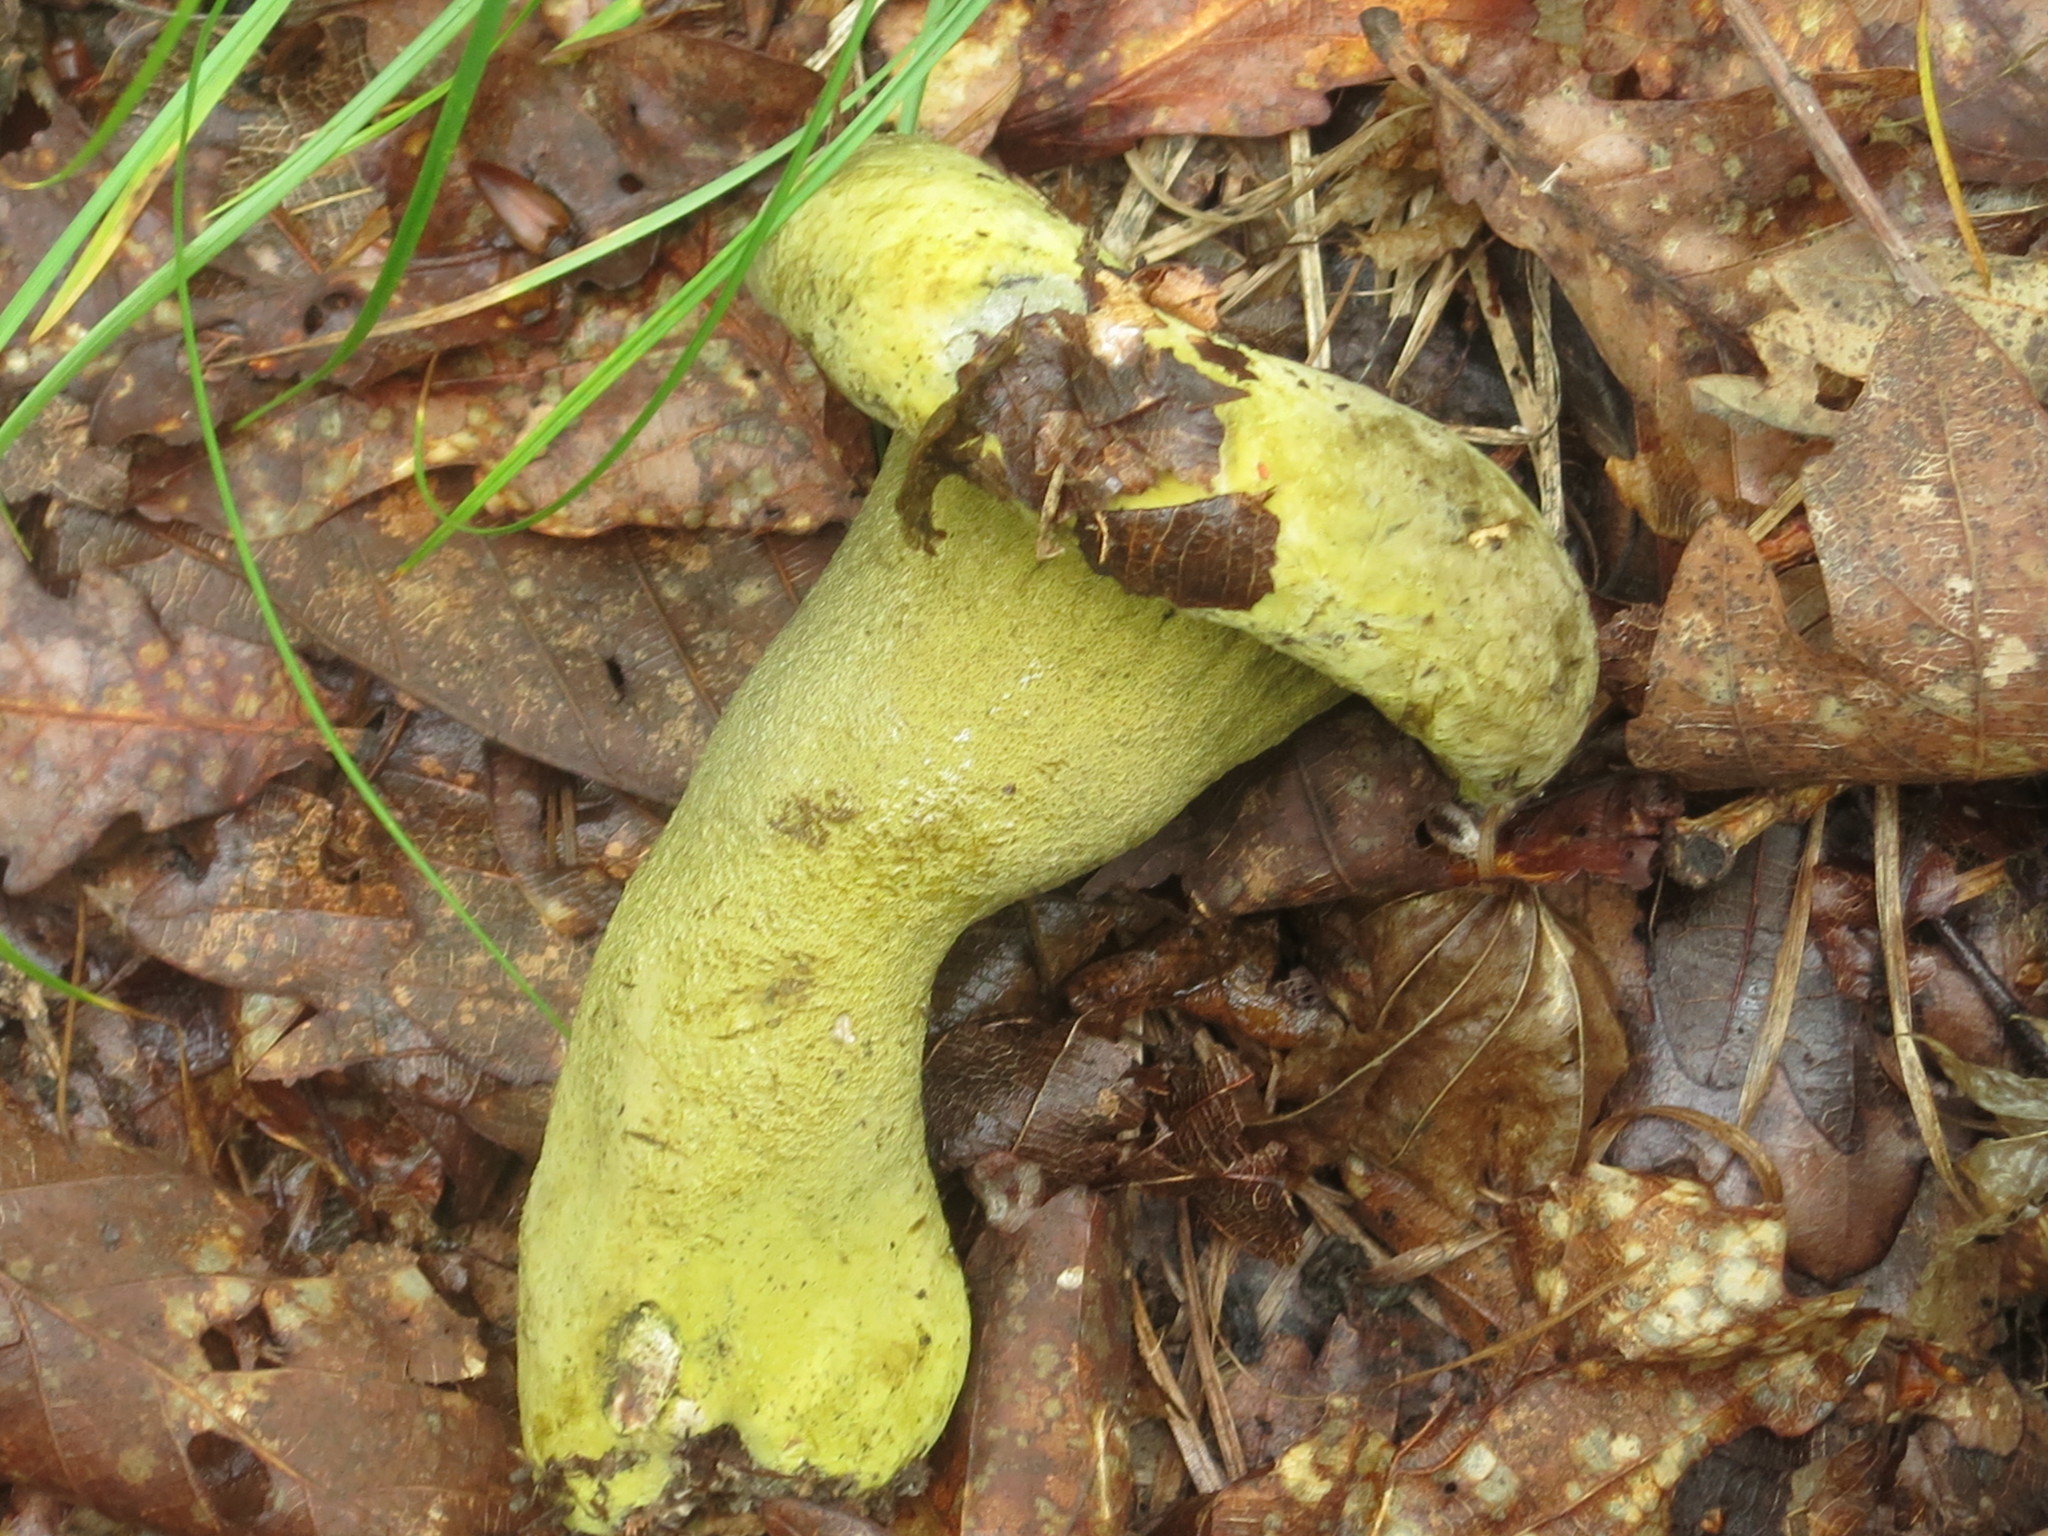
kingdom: Fungi
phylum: Ascomycota
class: Sordariomycetes
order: Hypocreales
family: Hypocreaceae
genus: Hypomyces
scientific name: Hypomyces luteovirens
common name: Yellow-green russula mold
